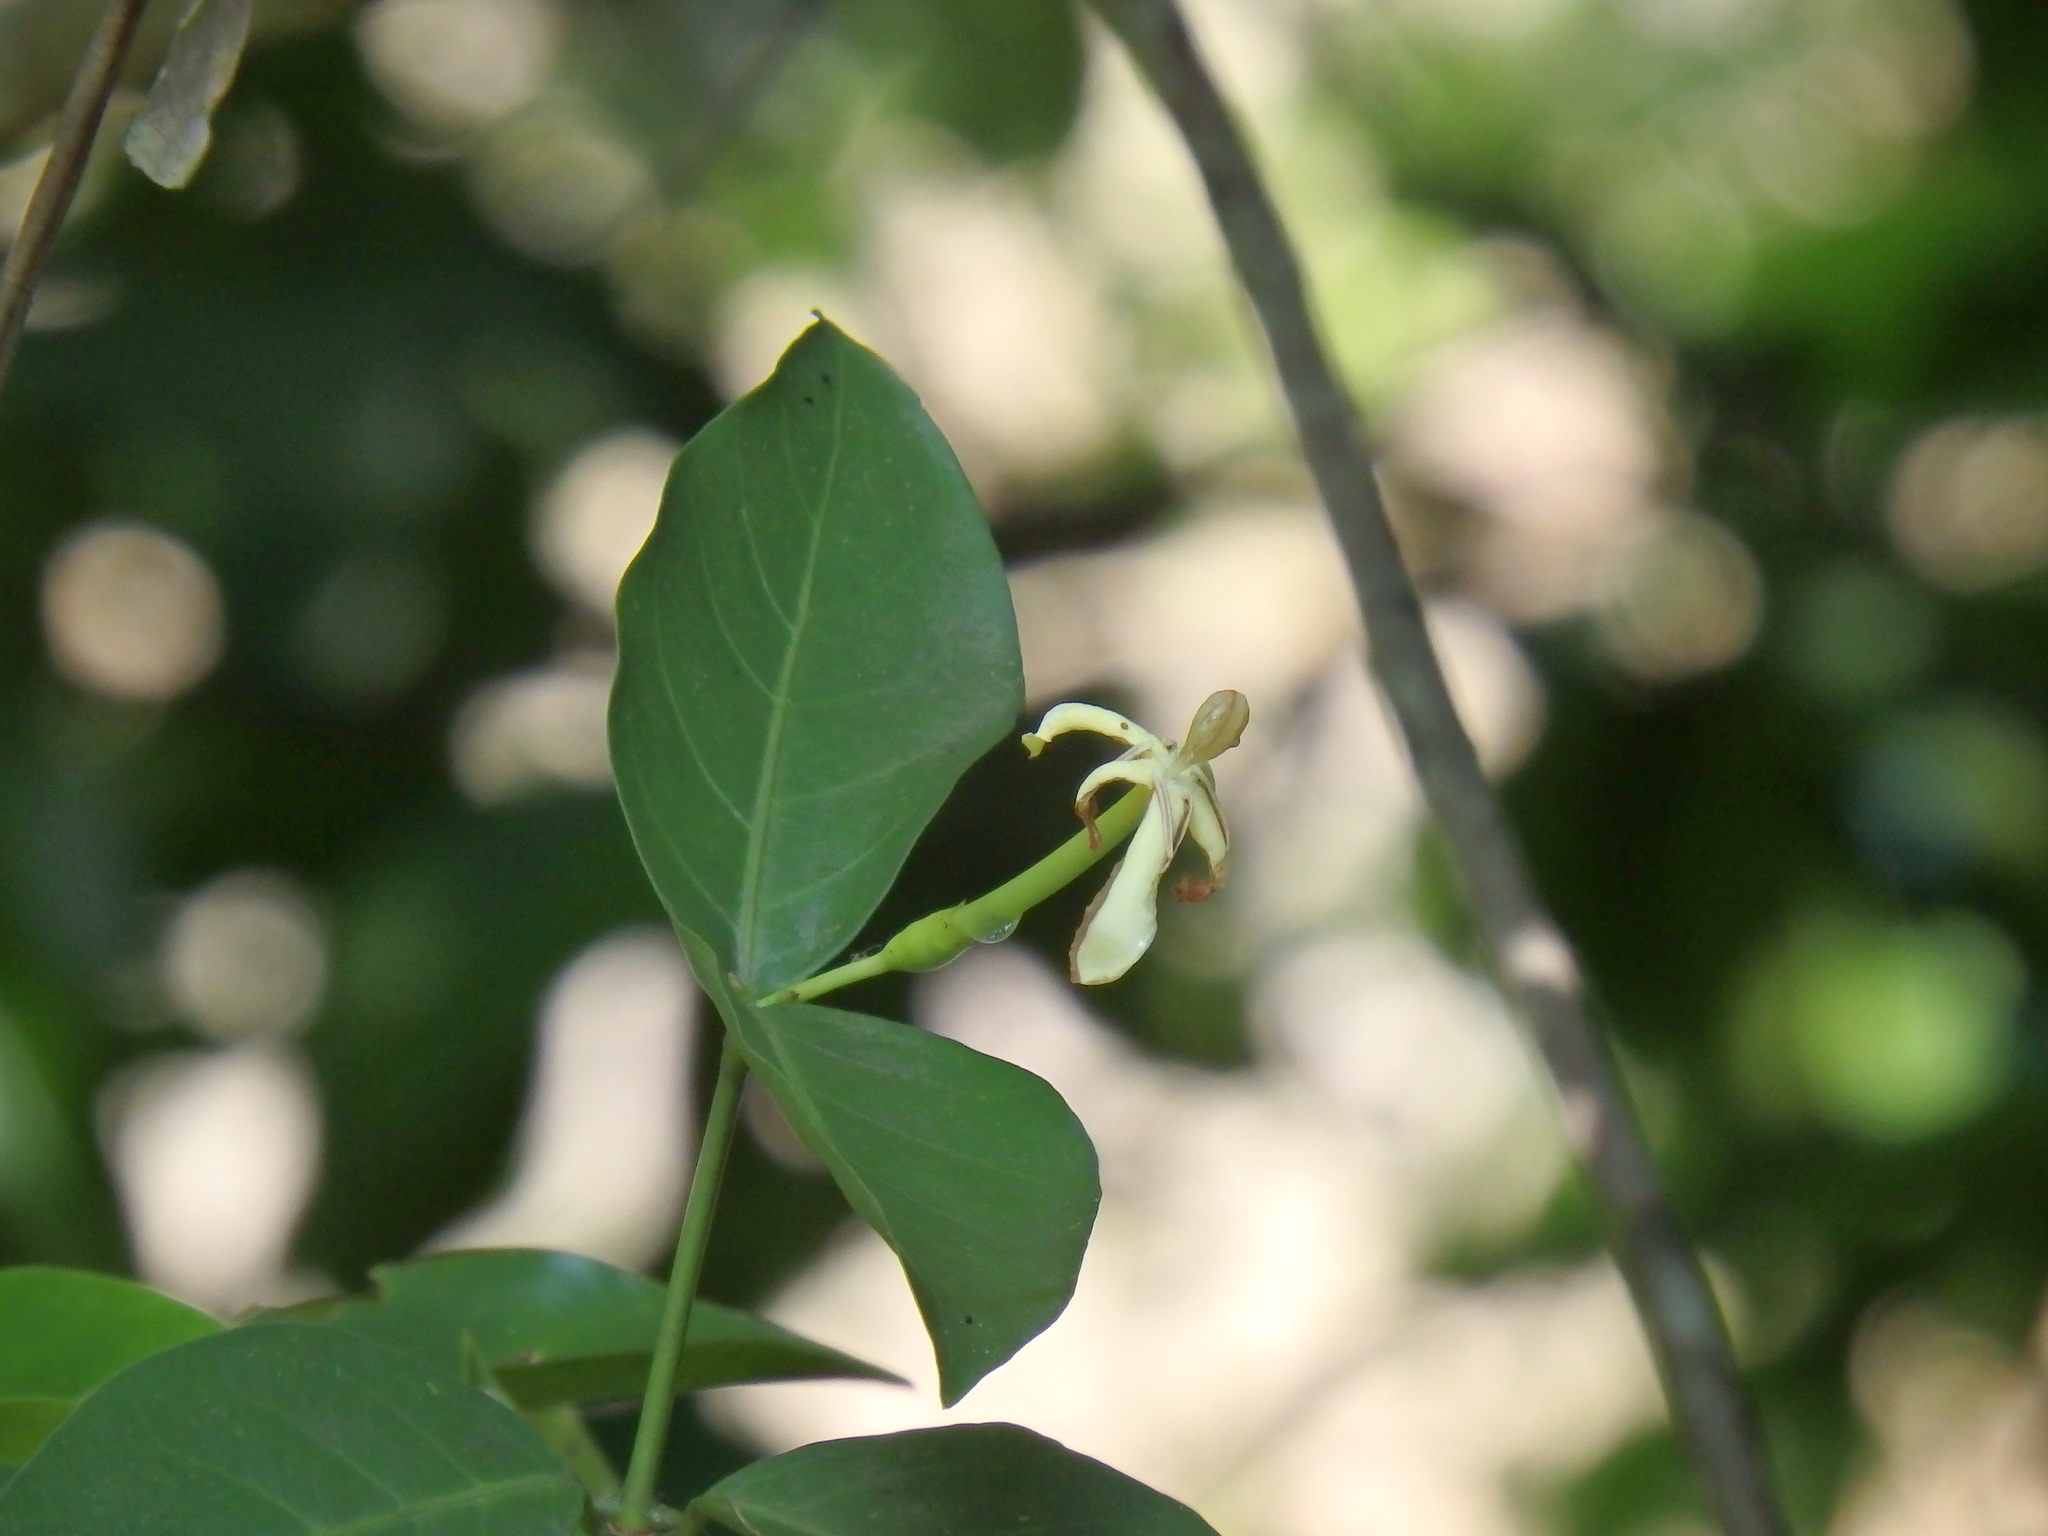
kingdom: Plantae
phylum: Tracheophyta
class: Magnoliopsida
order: Gentianales
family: Rubiaceae
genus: Oxyceros
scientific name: Oxyceros longiflorus
